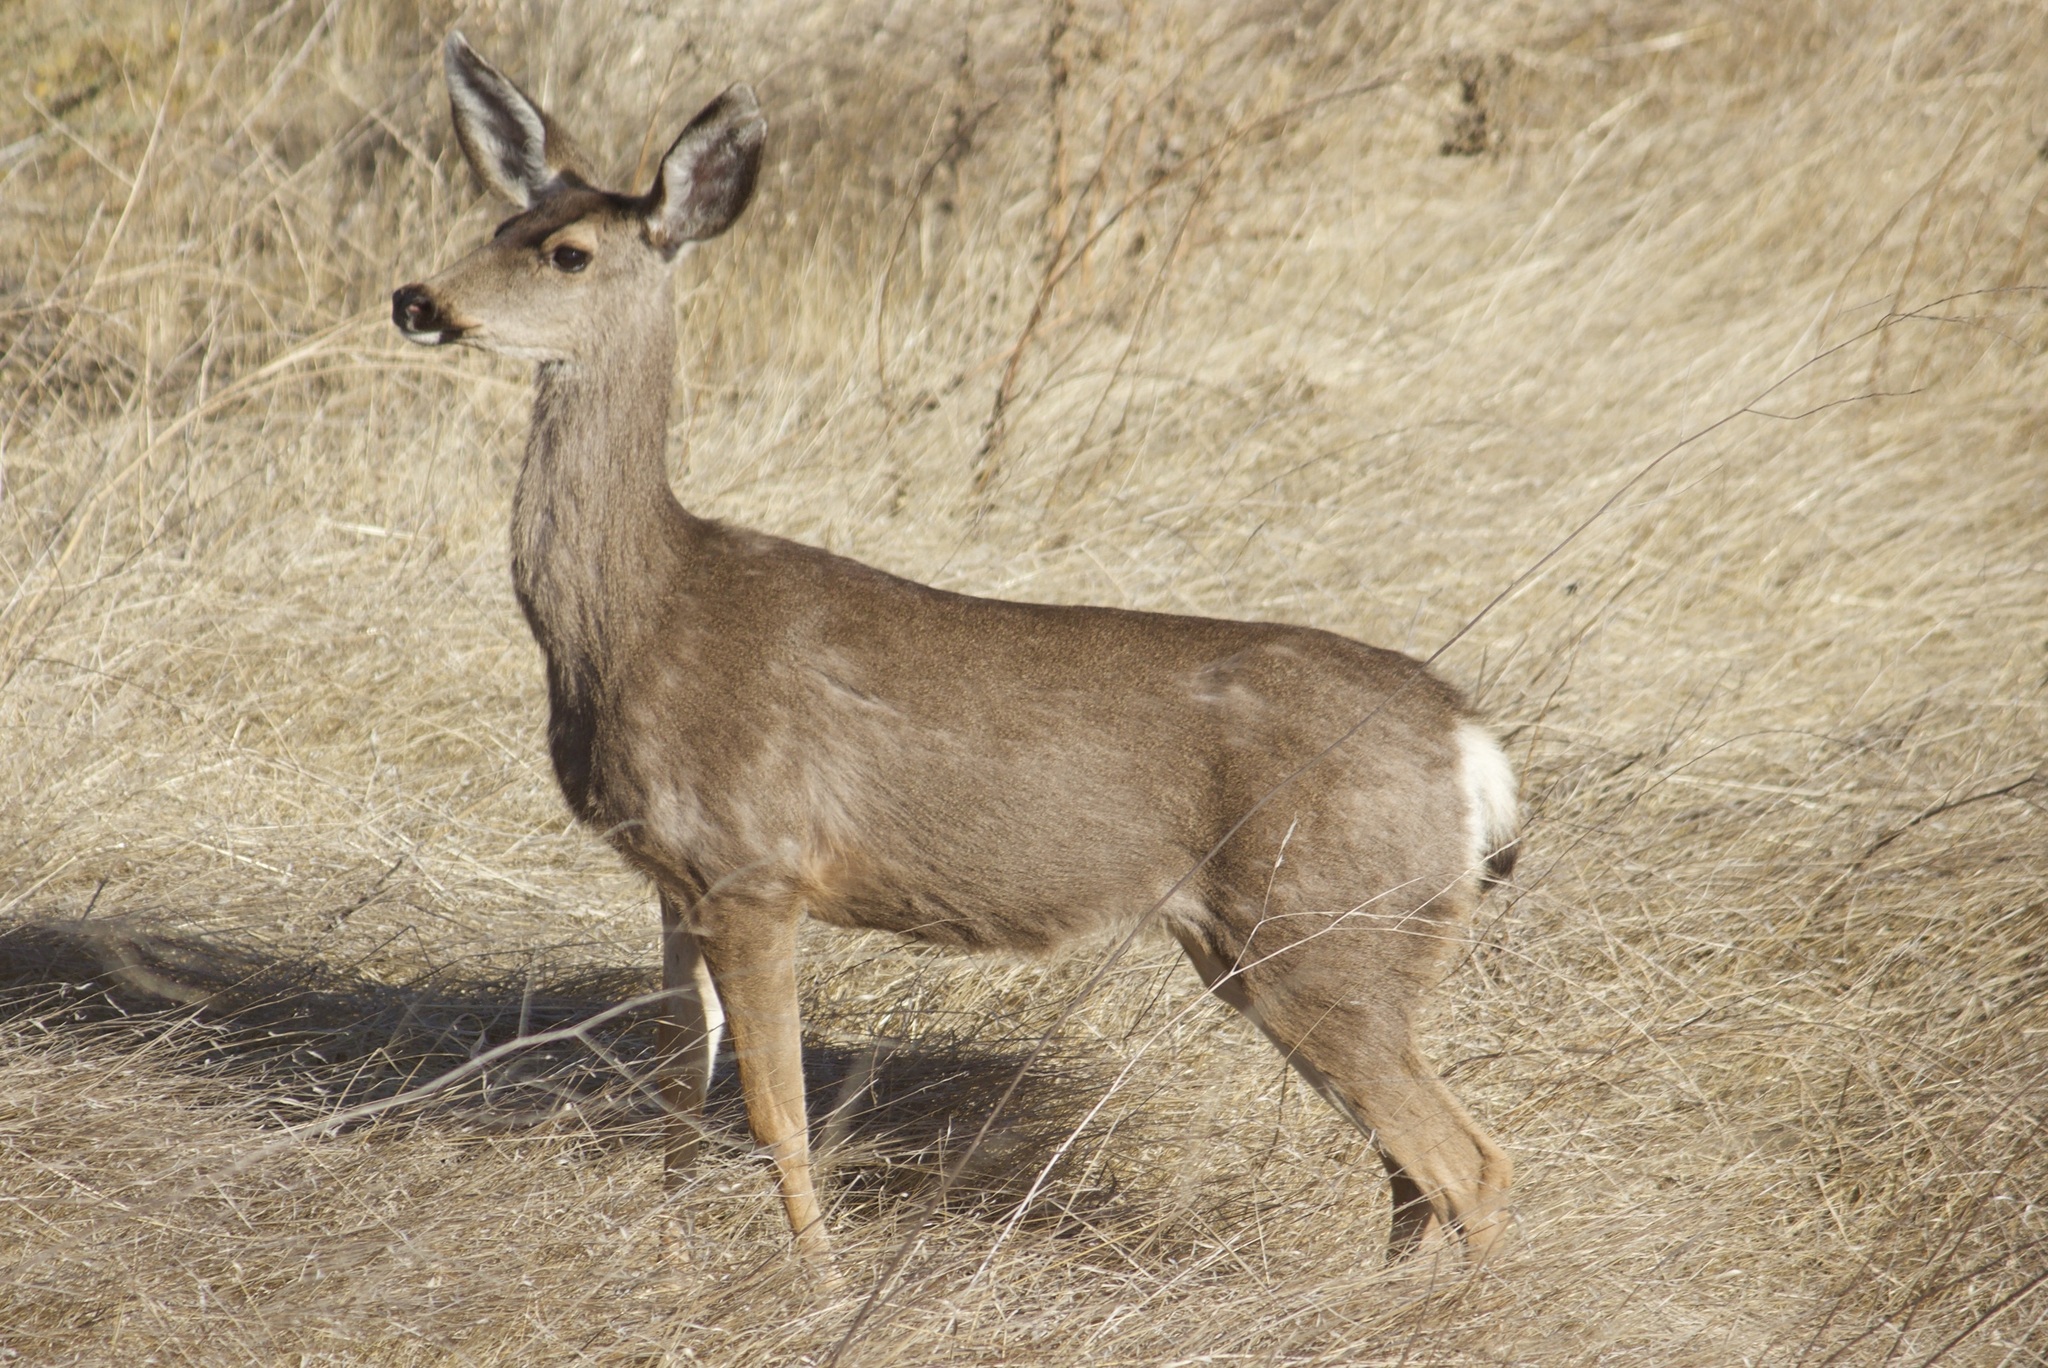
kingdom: Animalia
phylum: Chordata
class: Mammalia
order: Artiodactyla
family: Cervidae
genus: Odocoileus
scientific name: Odocoileus hemionus
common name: Mule deer
